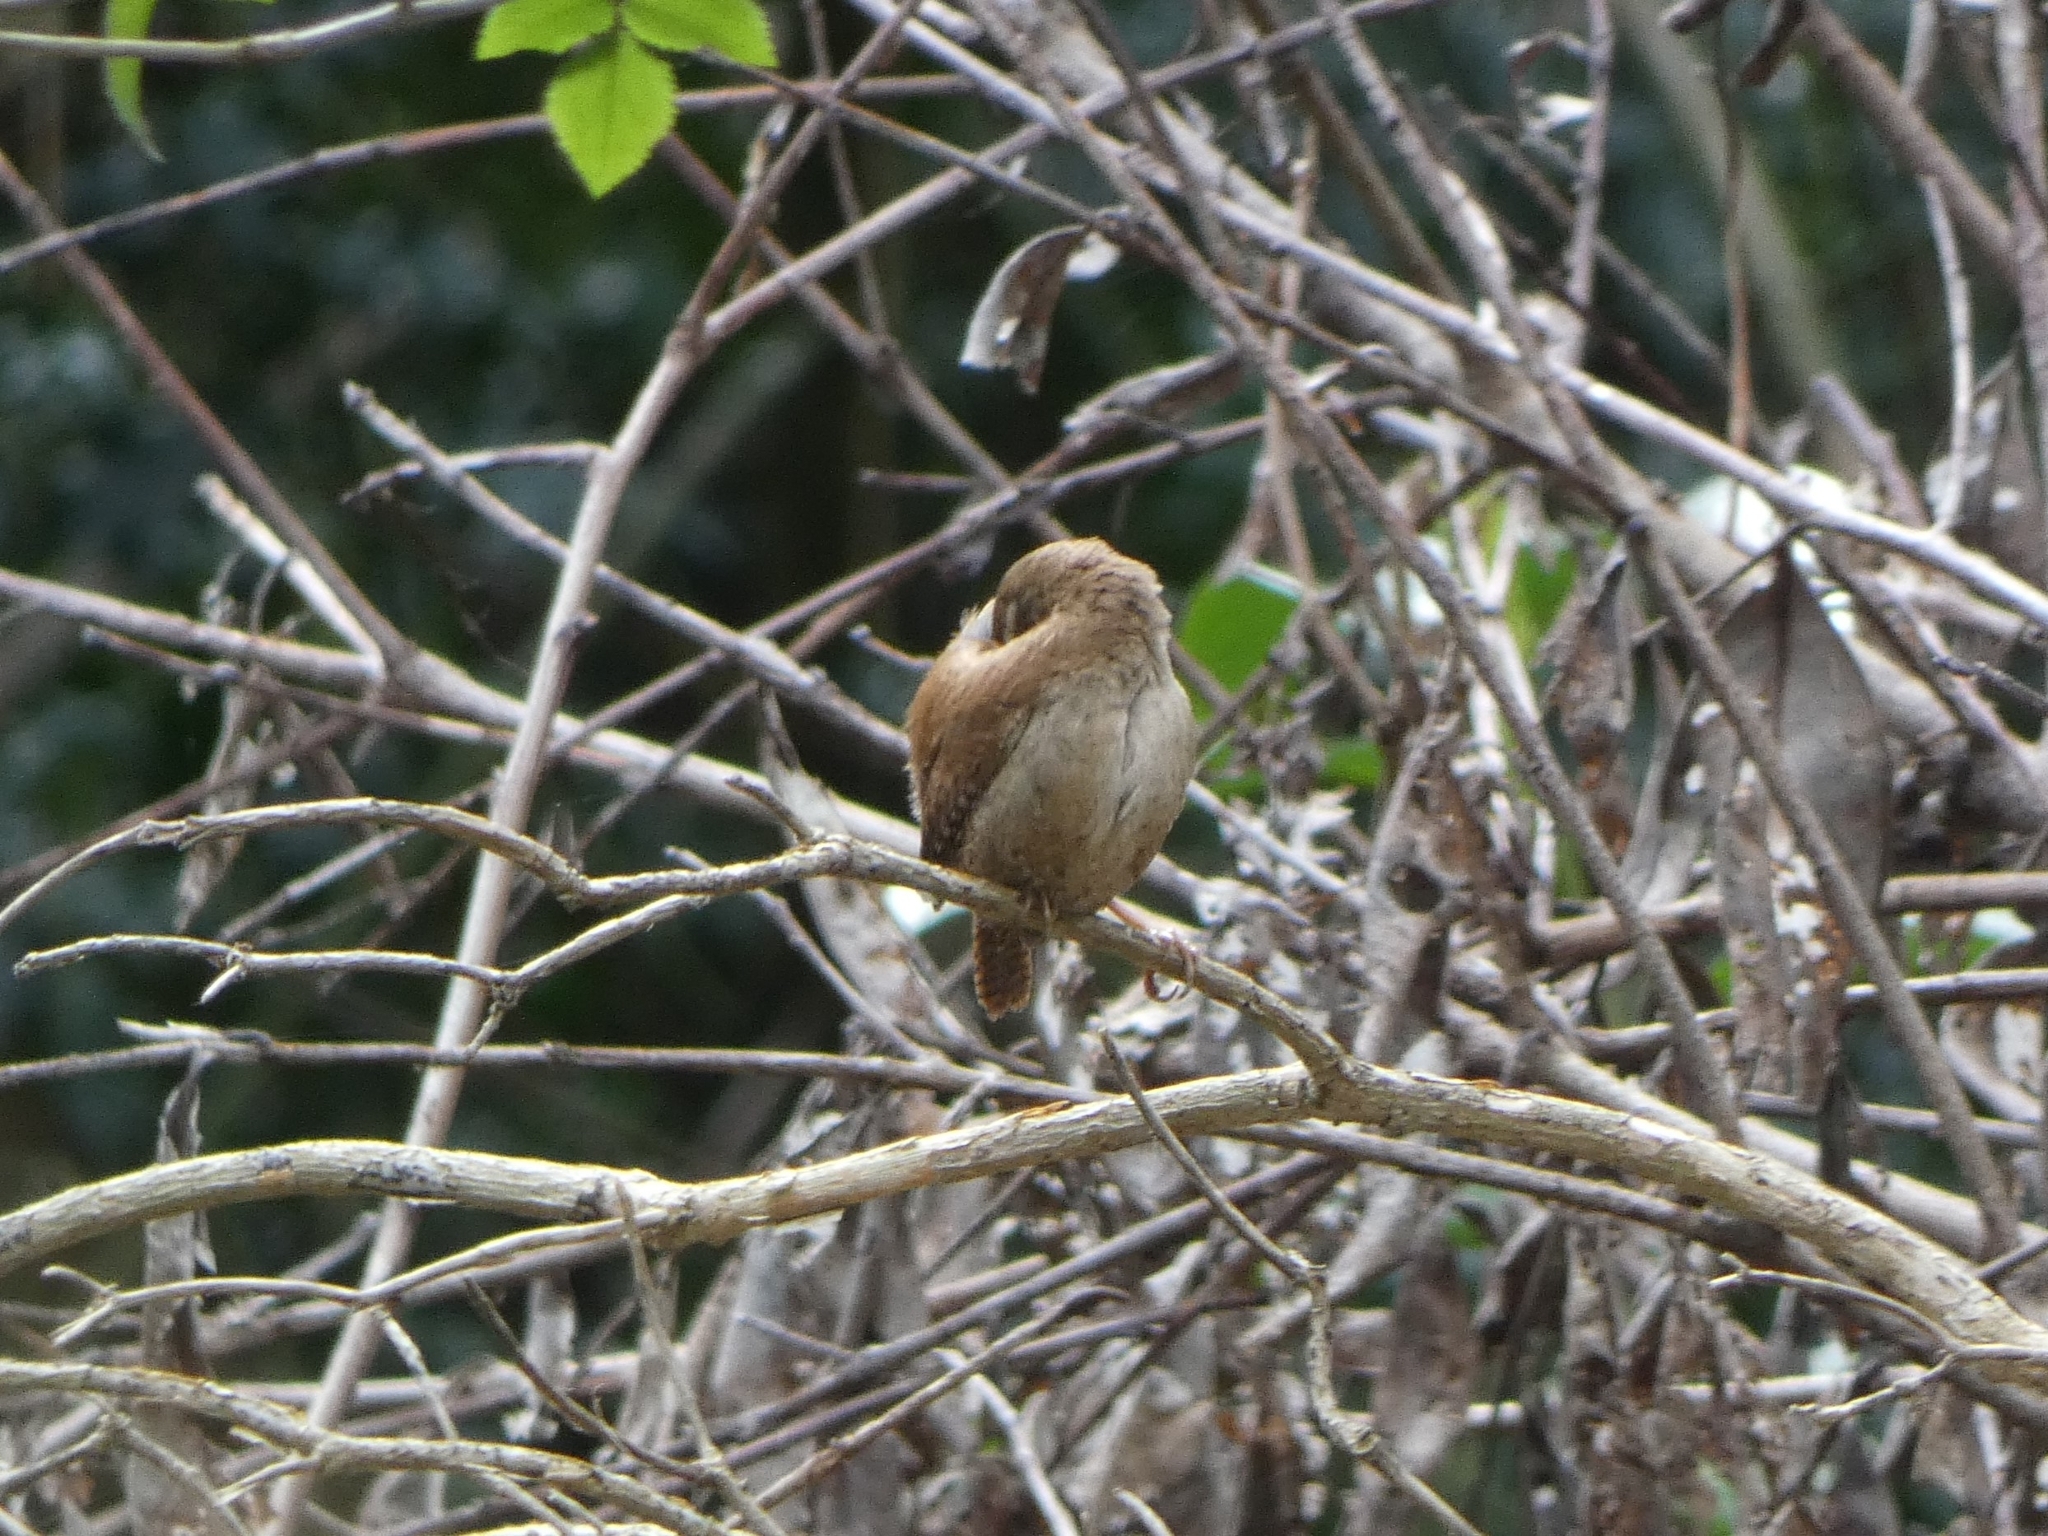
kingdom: Animalia
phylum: Chordata
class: Aves
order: Passeriformes
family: Troglodytidae
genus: Troglodytes
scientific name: Troglodytes troglodytes
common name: Eurasian wren
